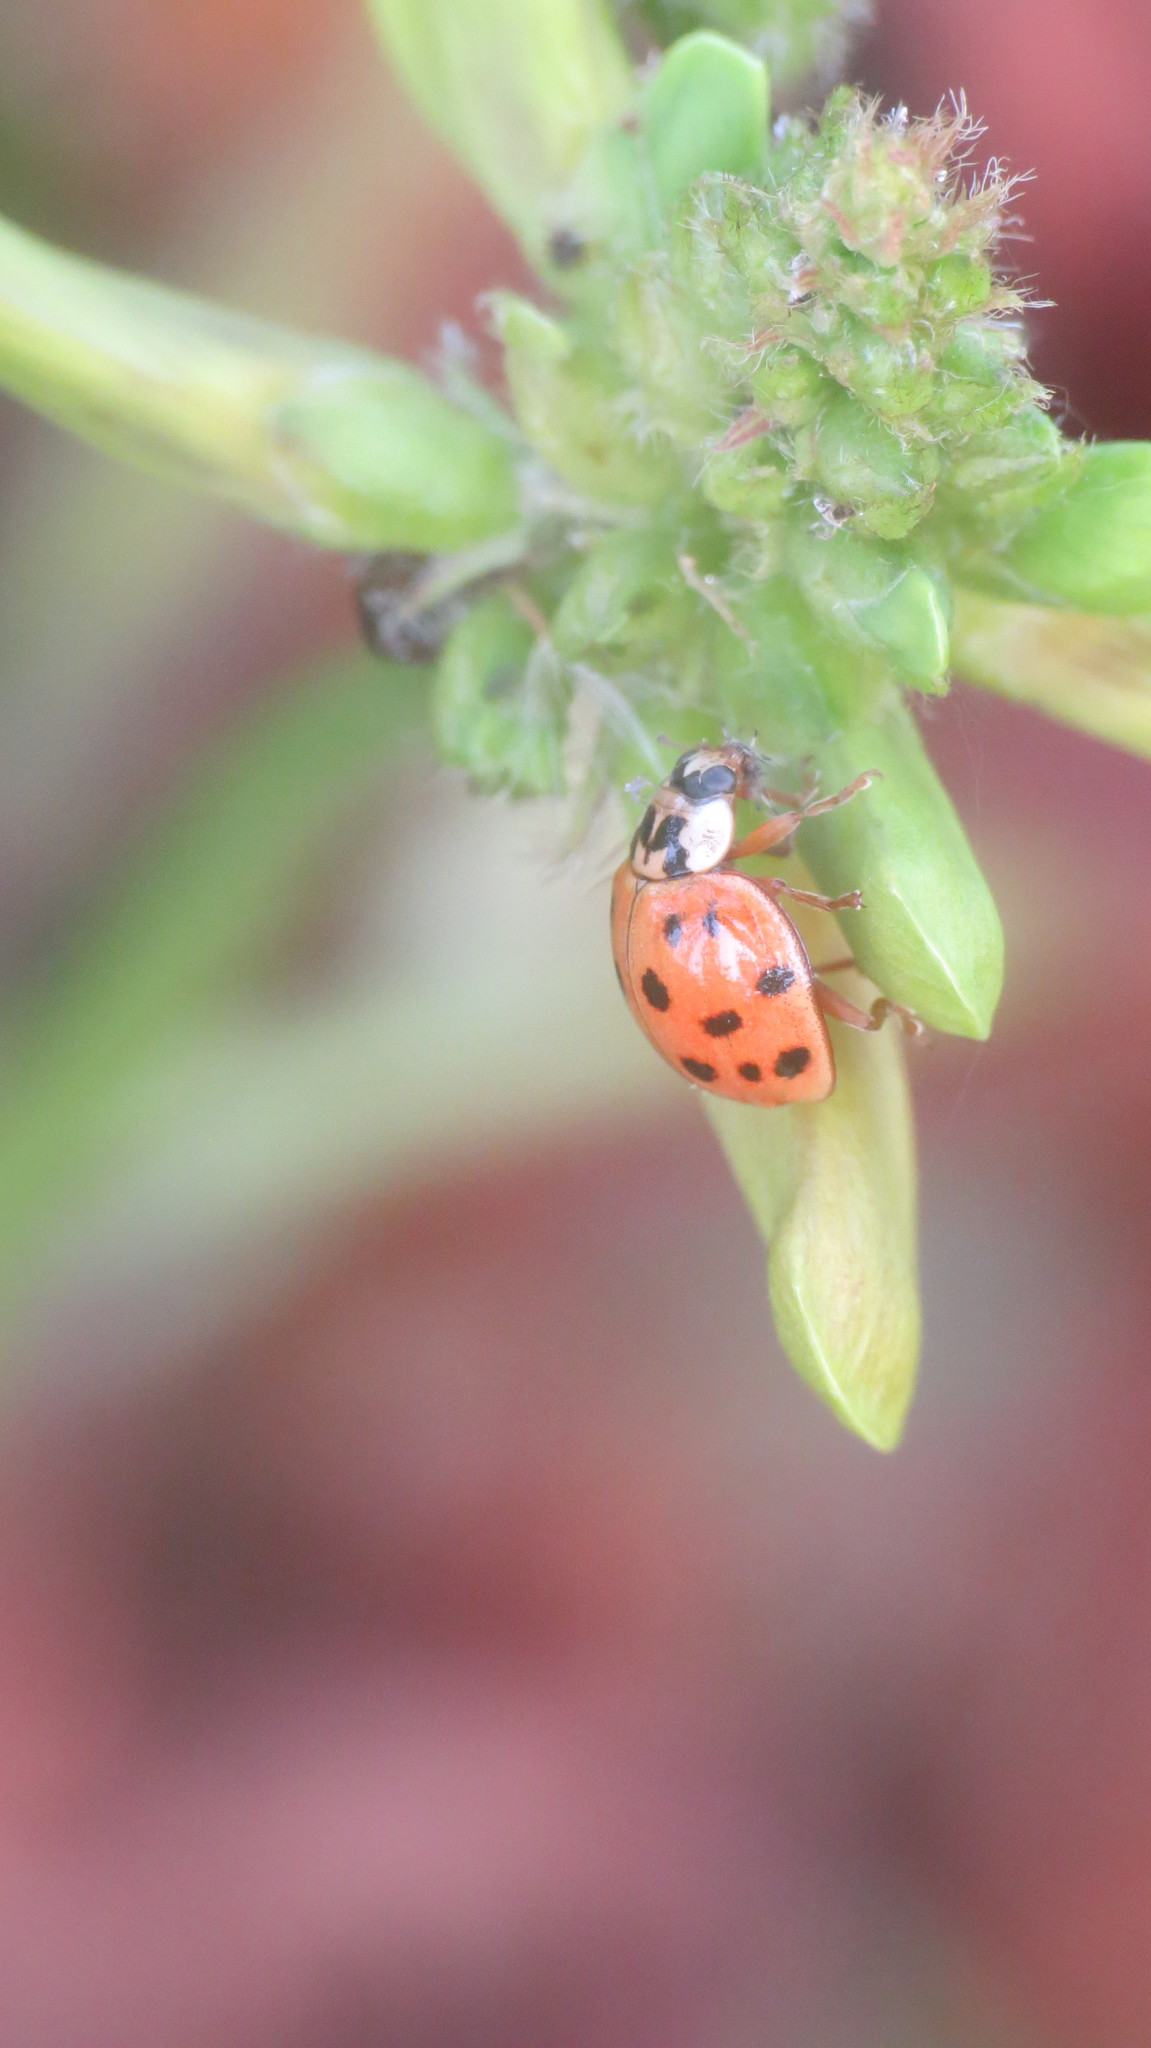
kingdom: Animalia
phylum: Arthropoda
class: Insecta
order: Coleoptera
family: Coccinellidae
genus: Harmonia
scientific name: Harmonia axyridis
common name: Harlequin ladybird
